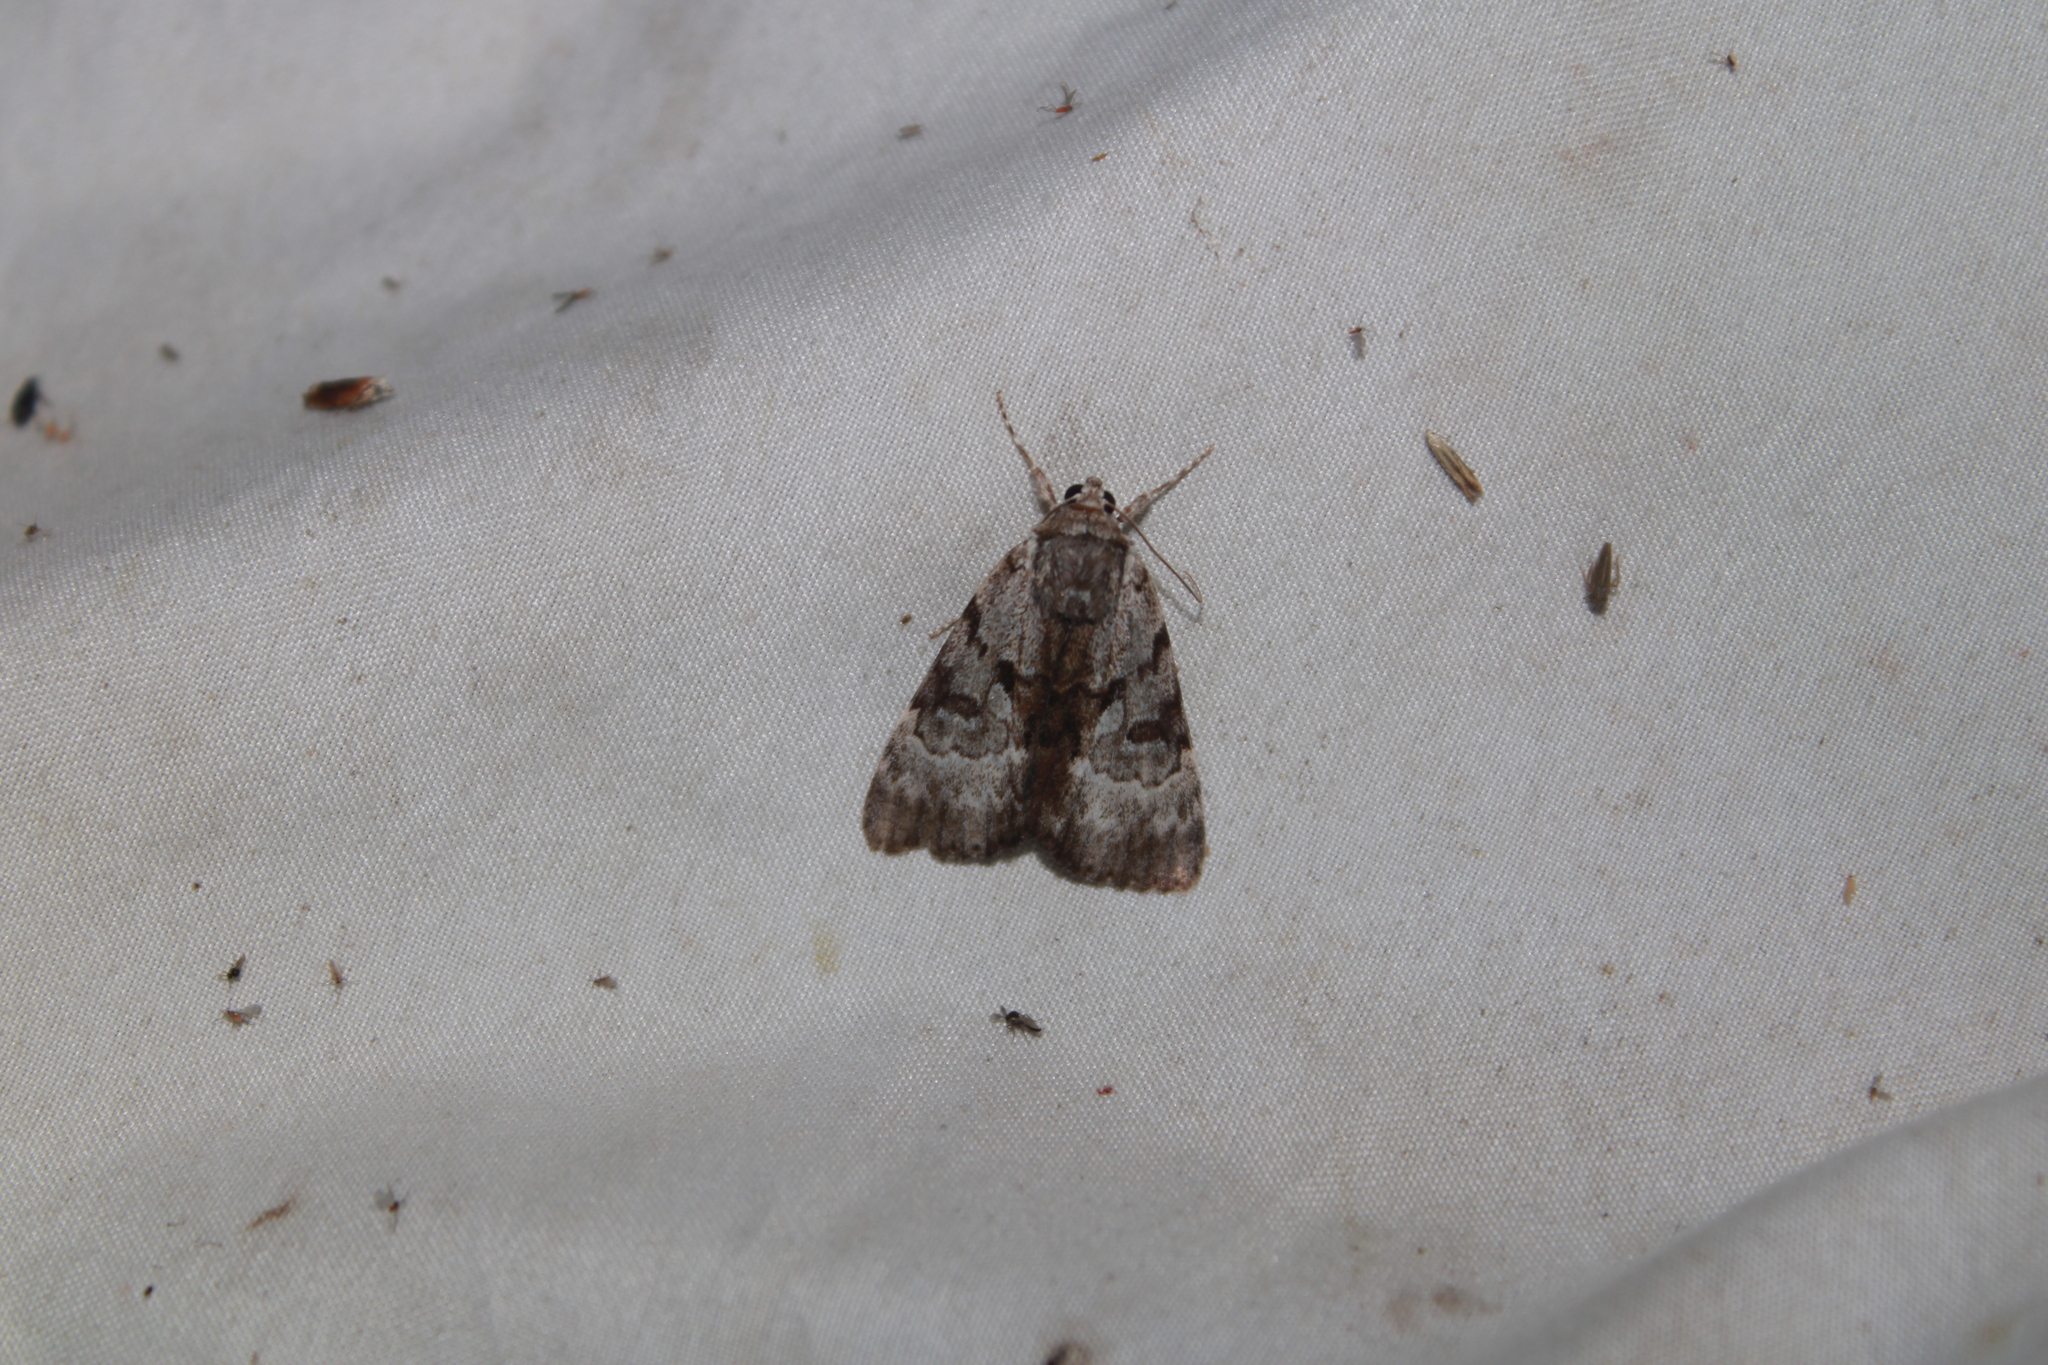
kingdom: Animalia
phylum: Arthropoda
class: Insecta
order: Lepidoptera
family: Erebidae
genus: Catocala
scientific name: Catocala andromedae
